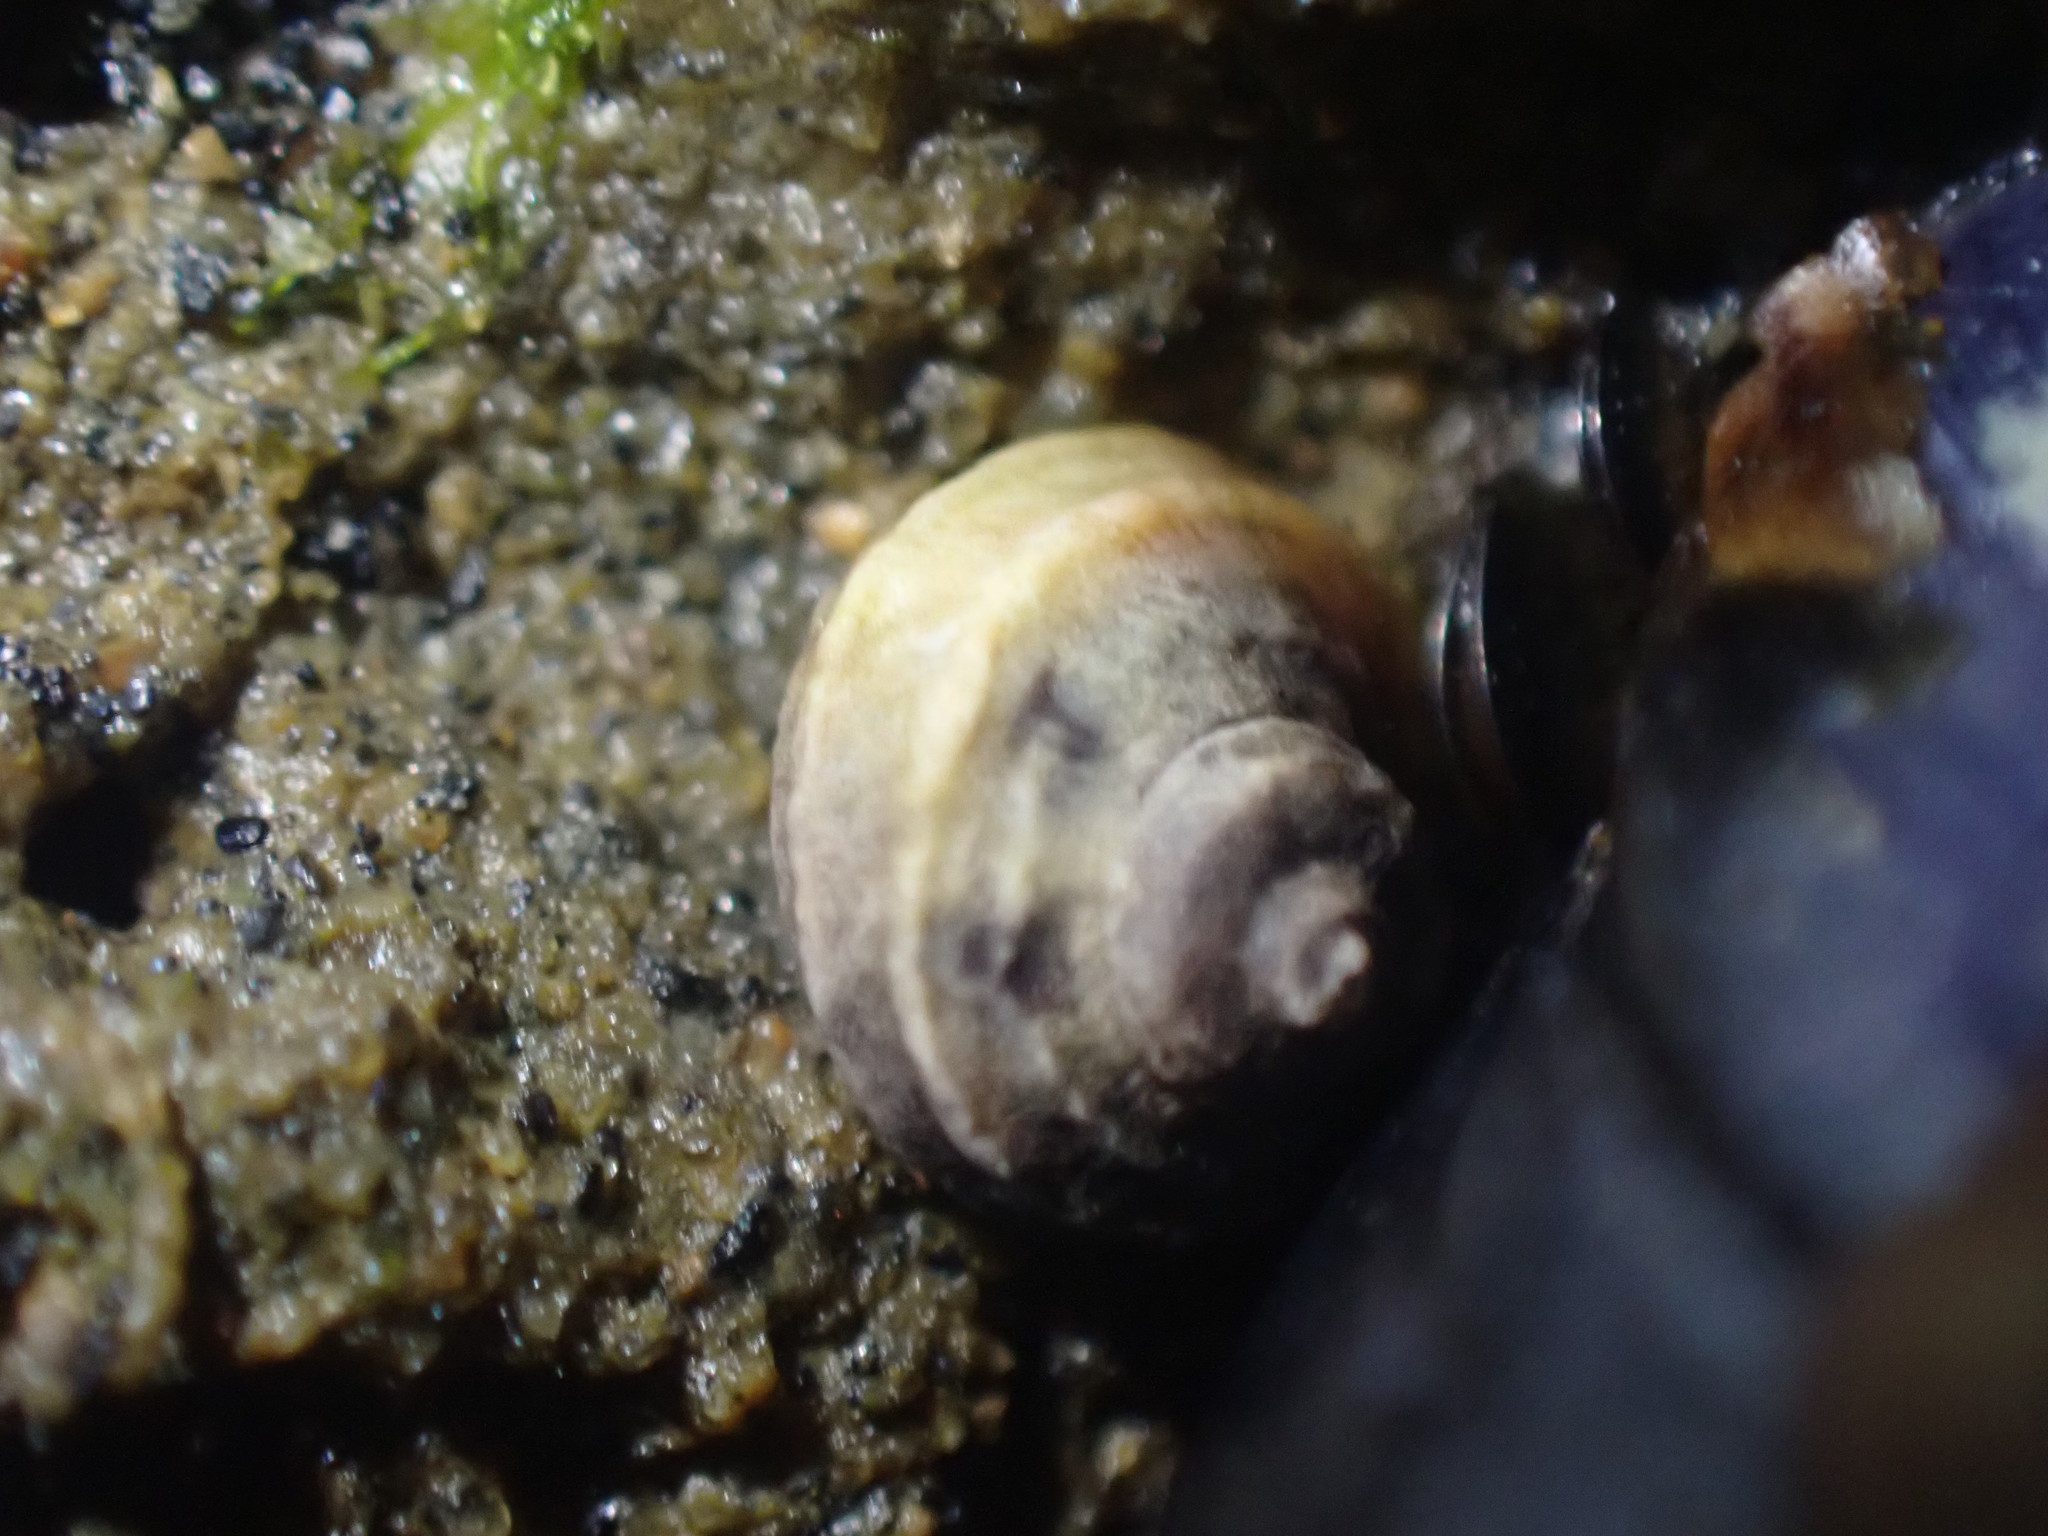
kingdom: Animalia
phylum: Mollusca
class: Gastropoda
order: Littorinimorpha
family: Littorinidae
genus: Risellopsis
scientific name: Risellopsis varia
